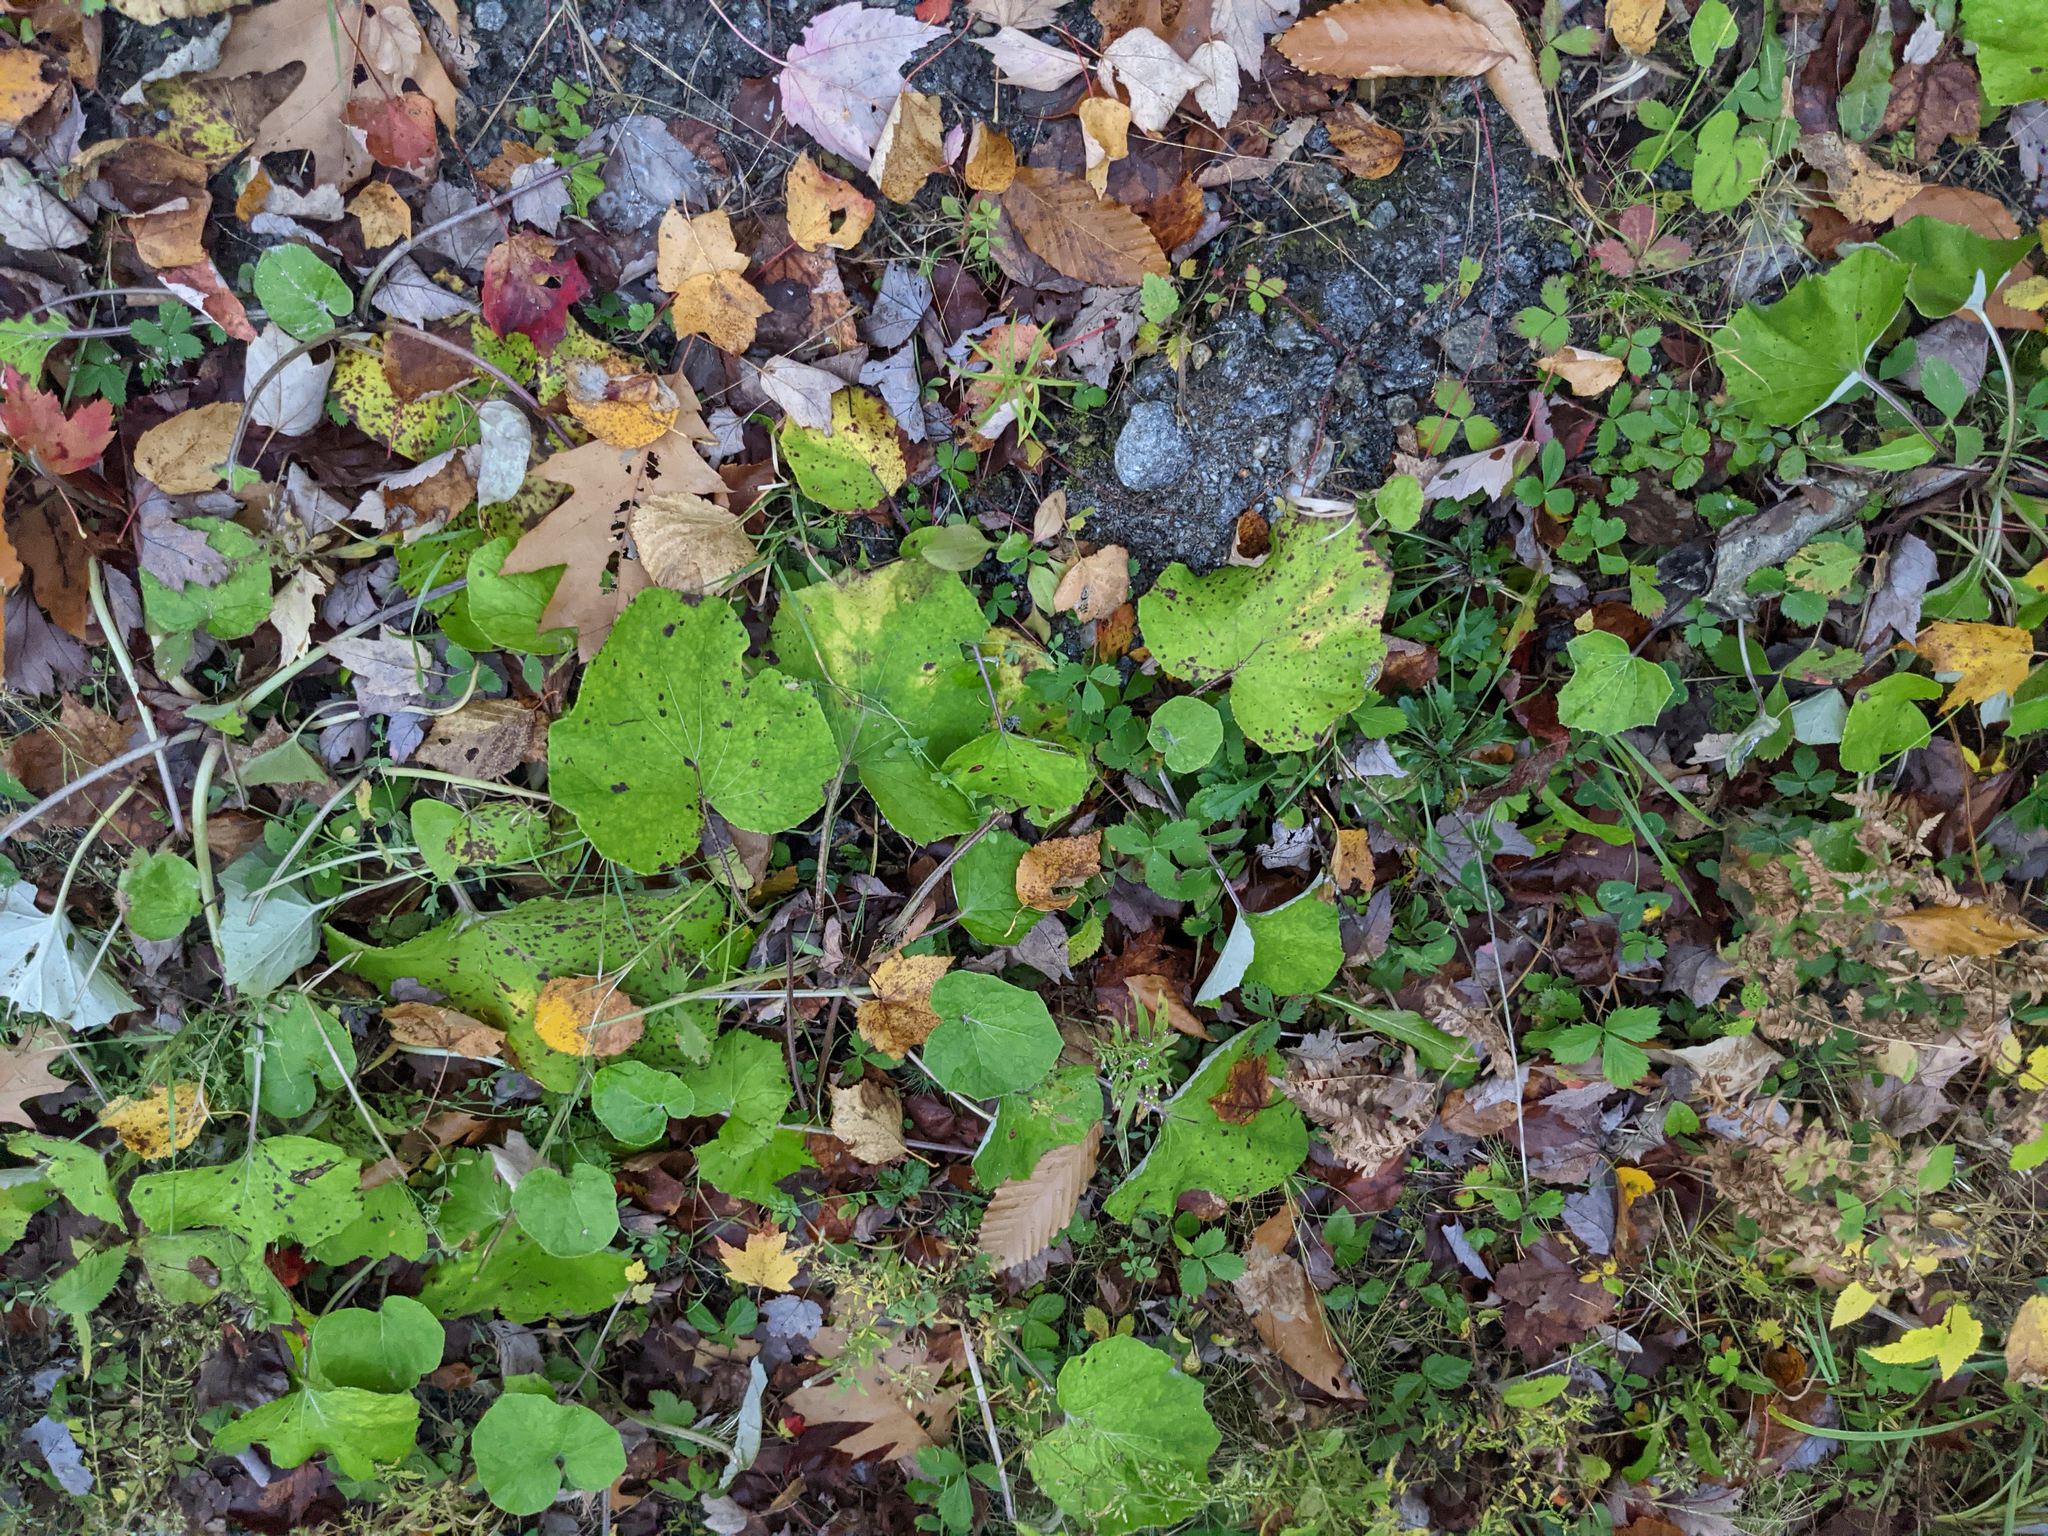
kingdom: Plantae
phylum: Tracheophyta
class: Magnoliopsida
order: Asterales
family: Asteraceae
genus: Tussilago
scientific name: Tussilago farfara
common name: Coltsfoot
